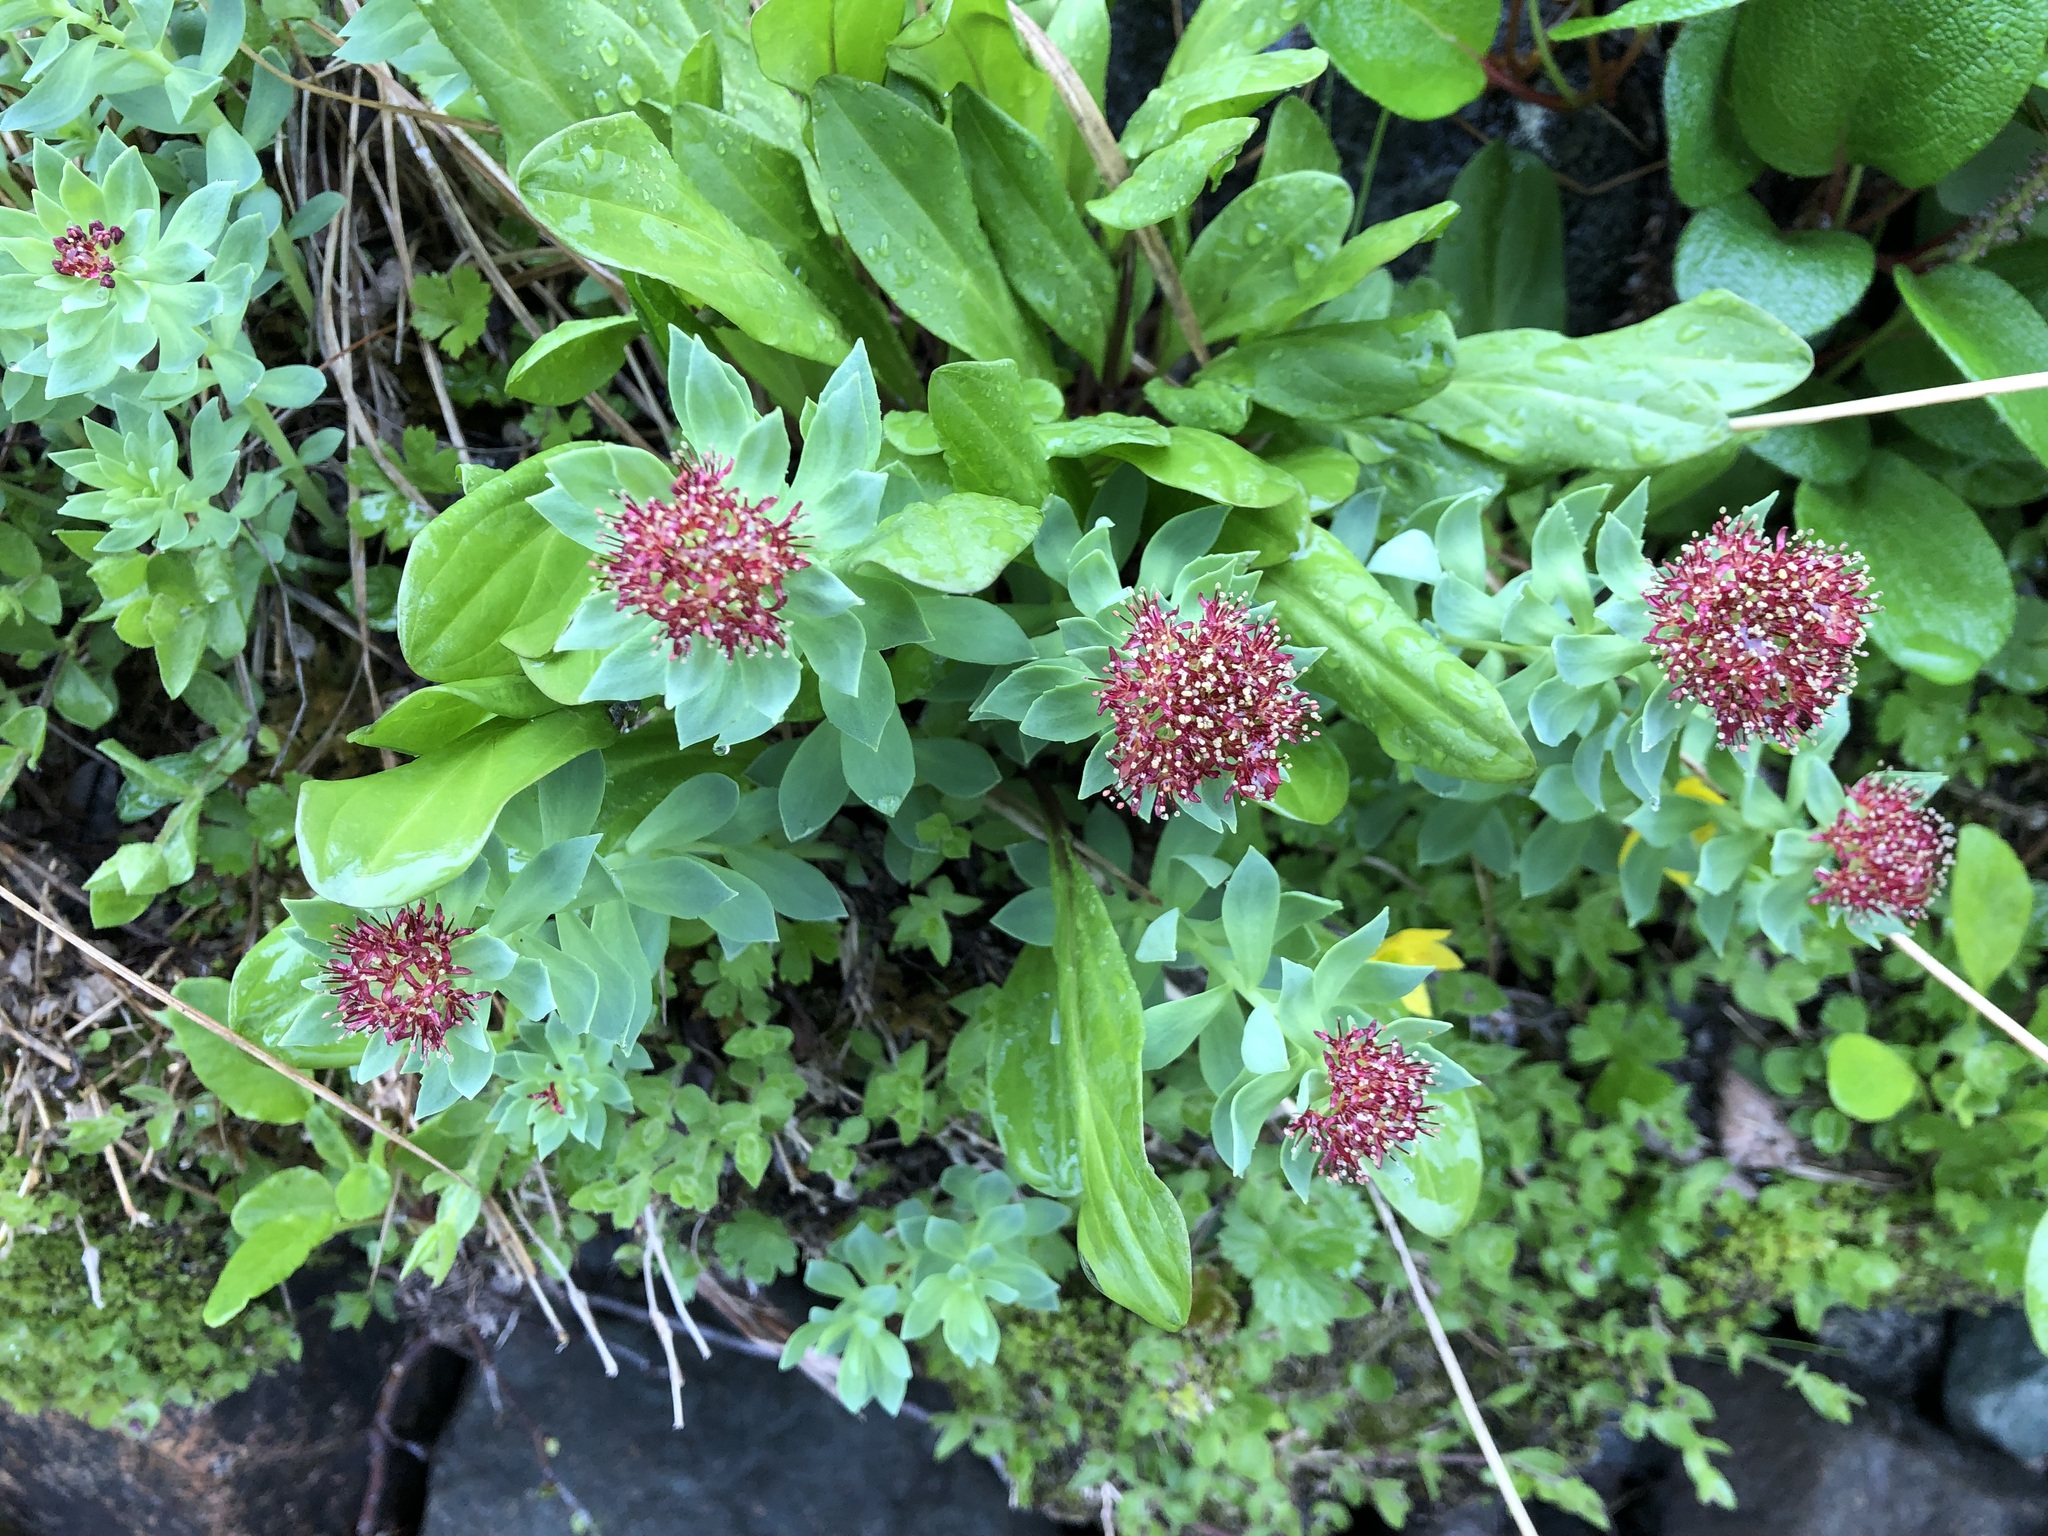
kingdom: Plantae
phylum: Tracheophyta
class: Magnoliopsida
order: Saxifragales
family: Crassulaceae
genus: Rhodiola
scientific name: Rhodiola integrifolia
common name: Western roseroot
